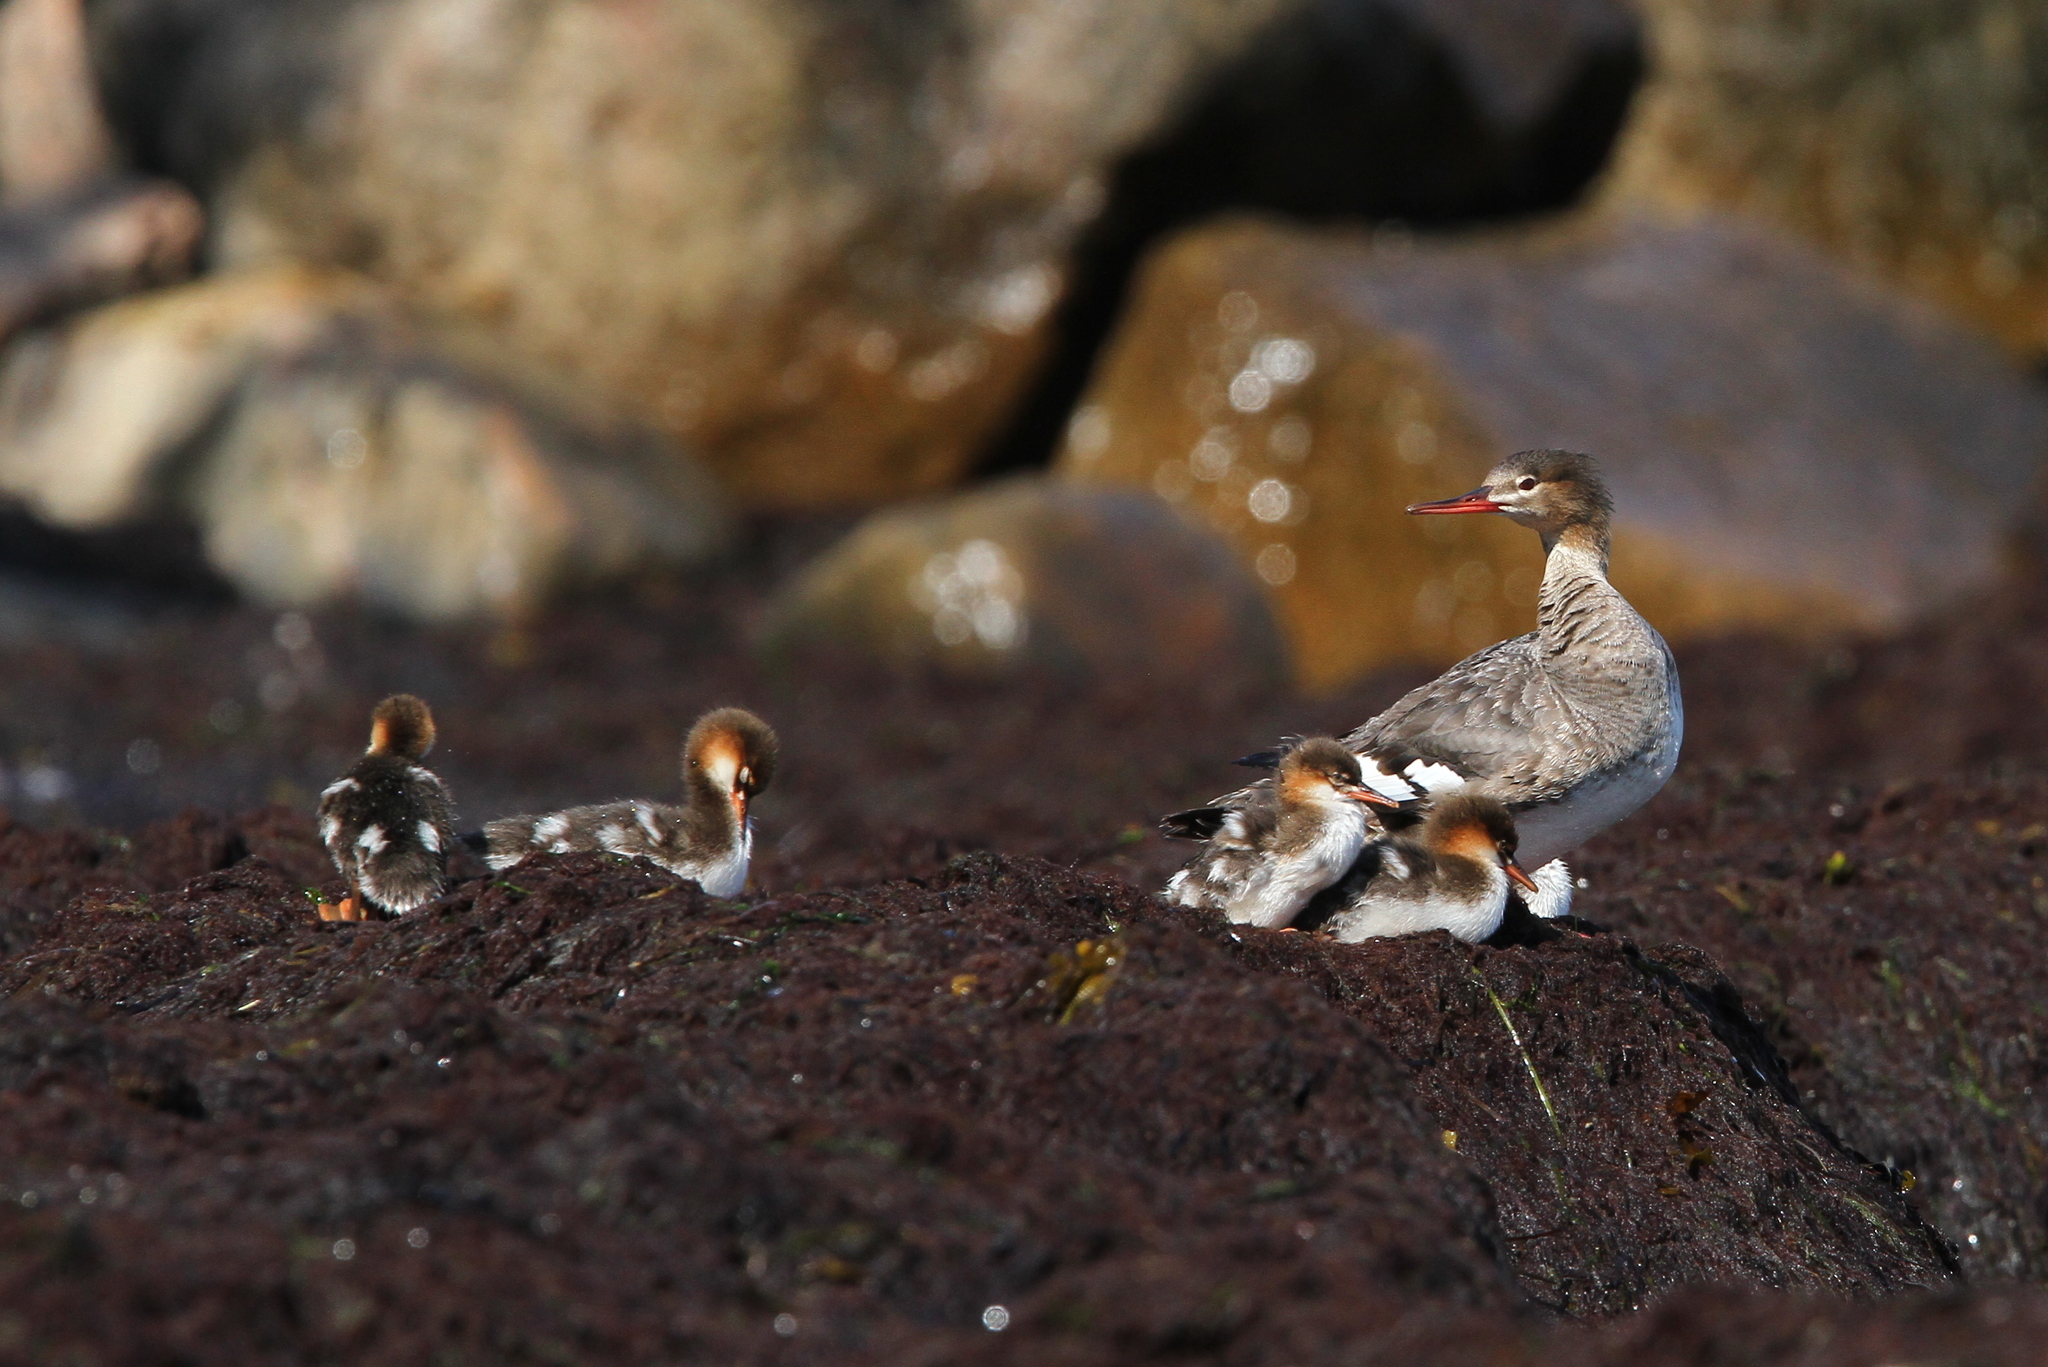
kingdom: Animalia
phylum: Chordata
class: Aves
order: Anseriformes
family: Anatidae
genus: Mergus
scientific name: Mergus serrator
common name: Red-breasted merganser
